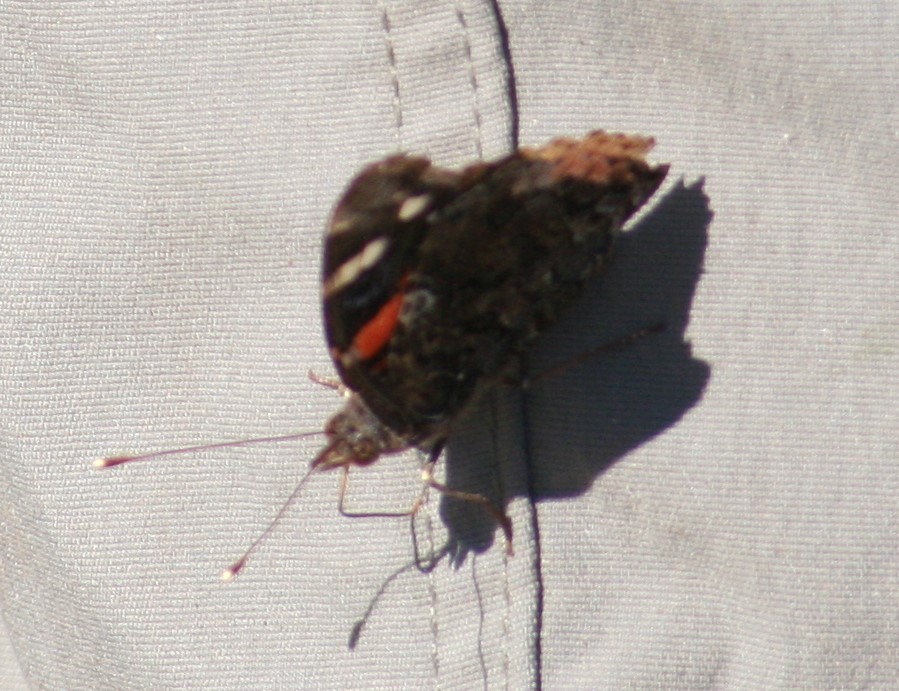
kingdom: Animalia
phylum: Arthropoda
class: Insecta
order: Lepidoptera
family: Nymphalidae
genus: Vanessa
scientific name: Vanessa atalanta
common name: Red admiral
